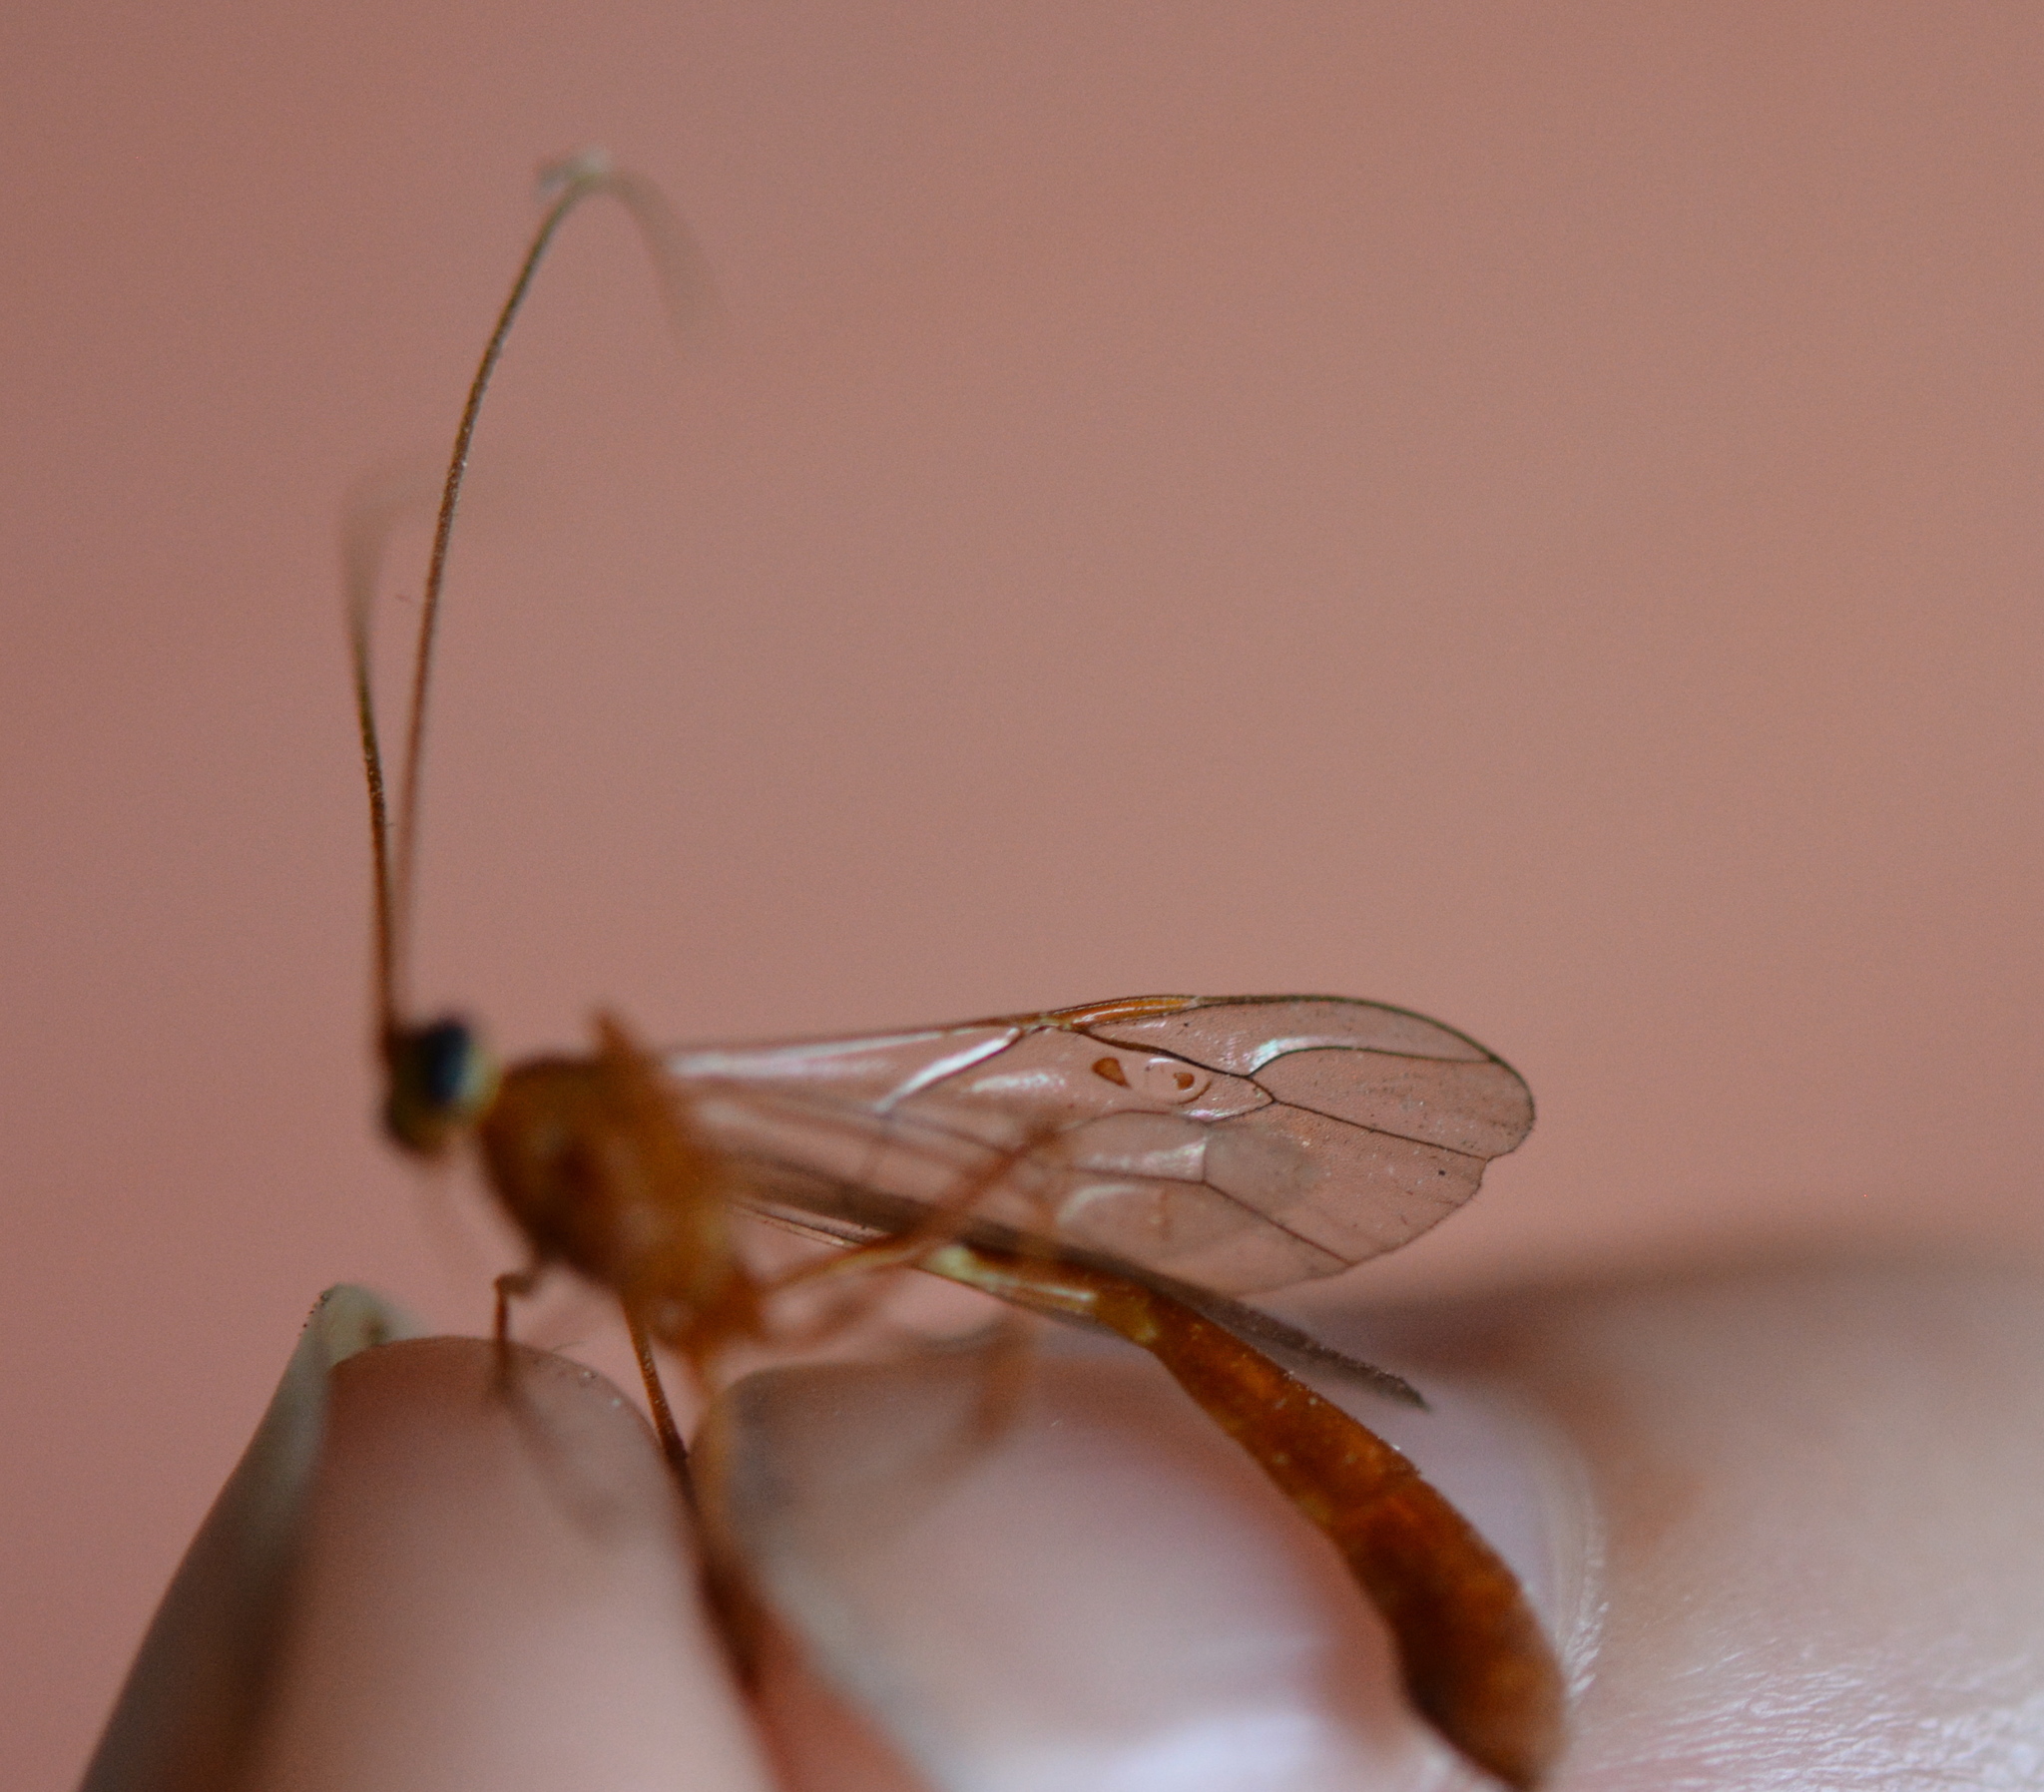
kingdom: Animalia
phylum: Arthropoda
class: Insecta
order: Hymenoptera
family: Ichneumonidae
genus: Enicospilus
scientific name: Enicospilus purgatus
